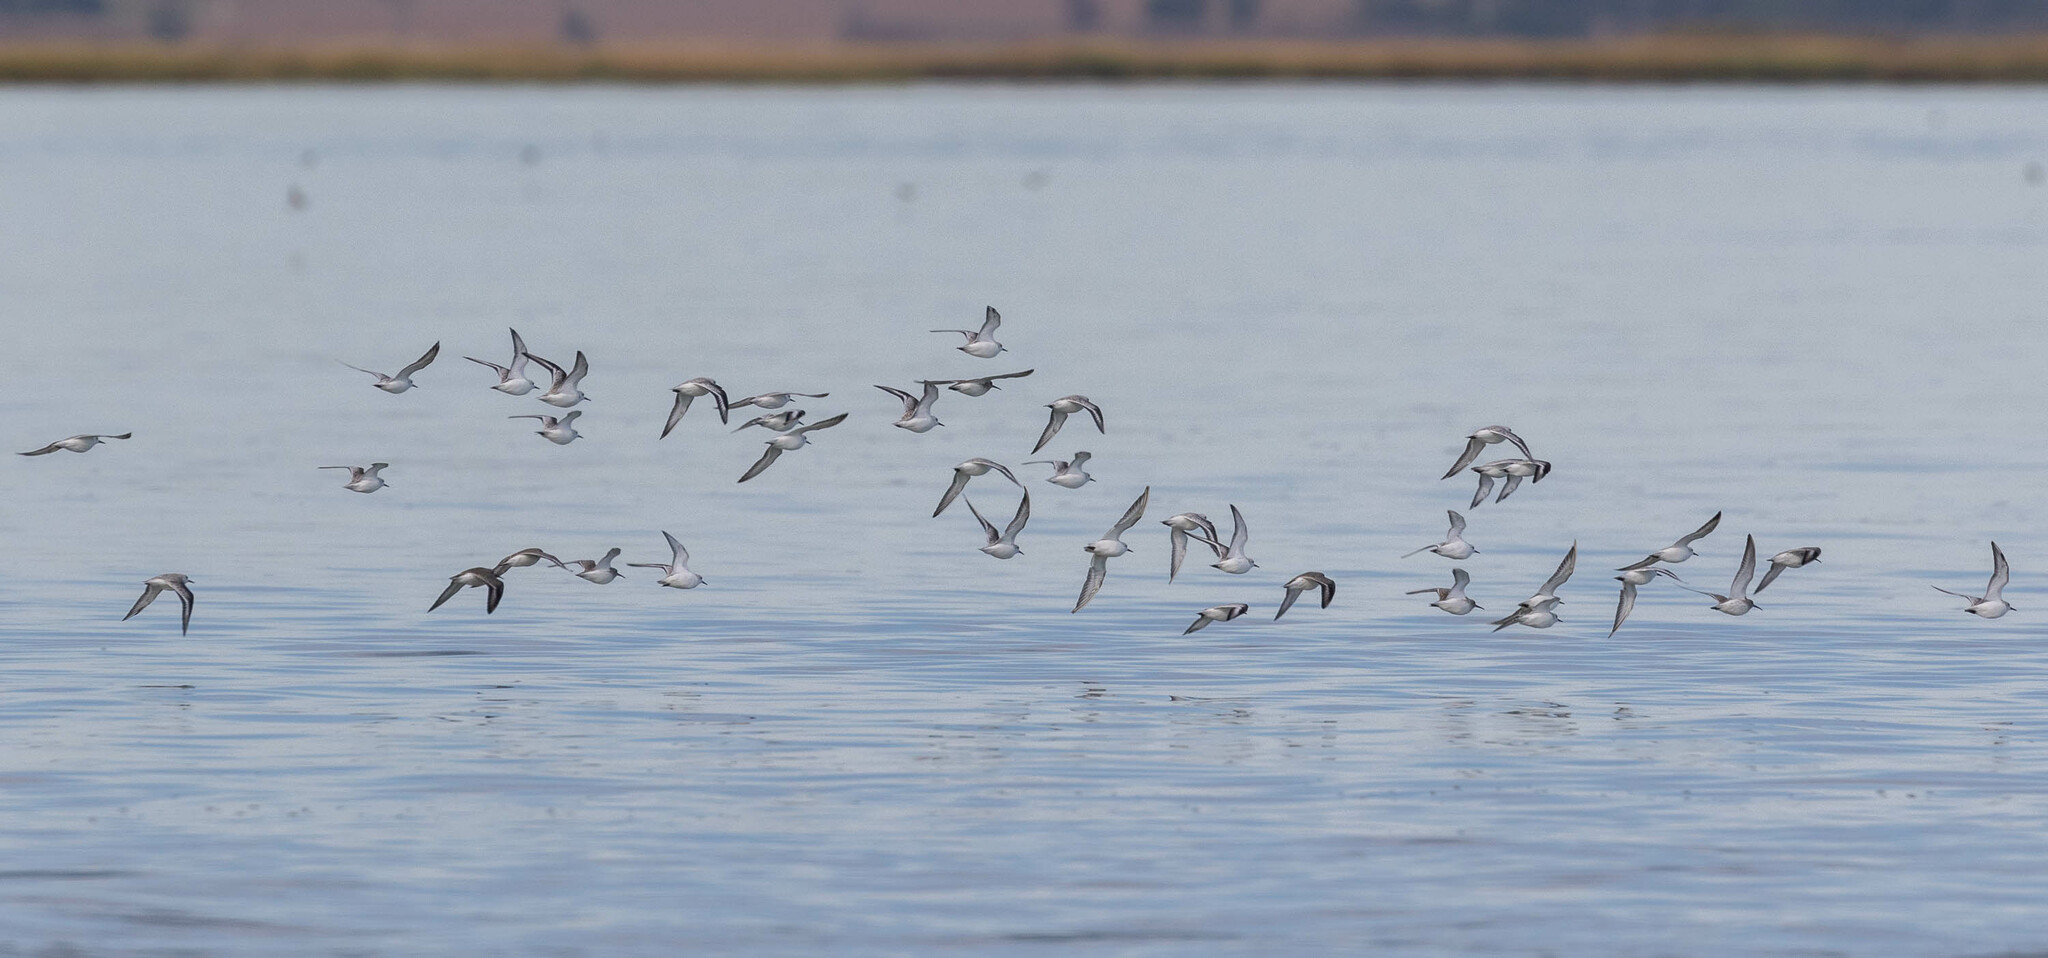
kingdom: Animalia
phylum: Chordata
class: Aves
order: Charadriiformes
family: Scolopacidae
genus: Calidris
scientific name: Calidris alba
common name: Sanderling
